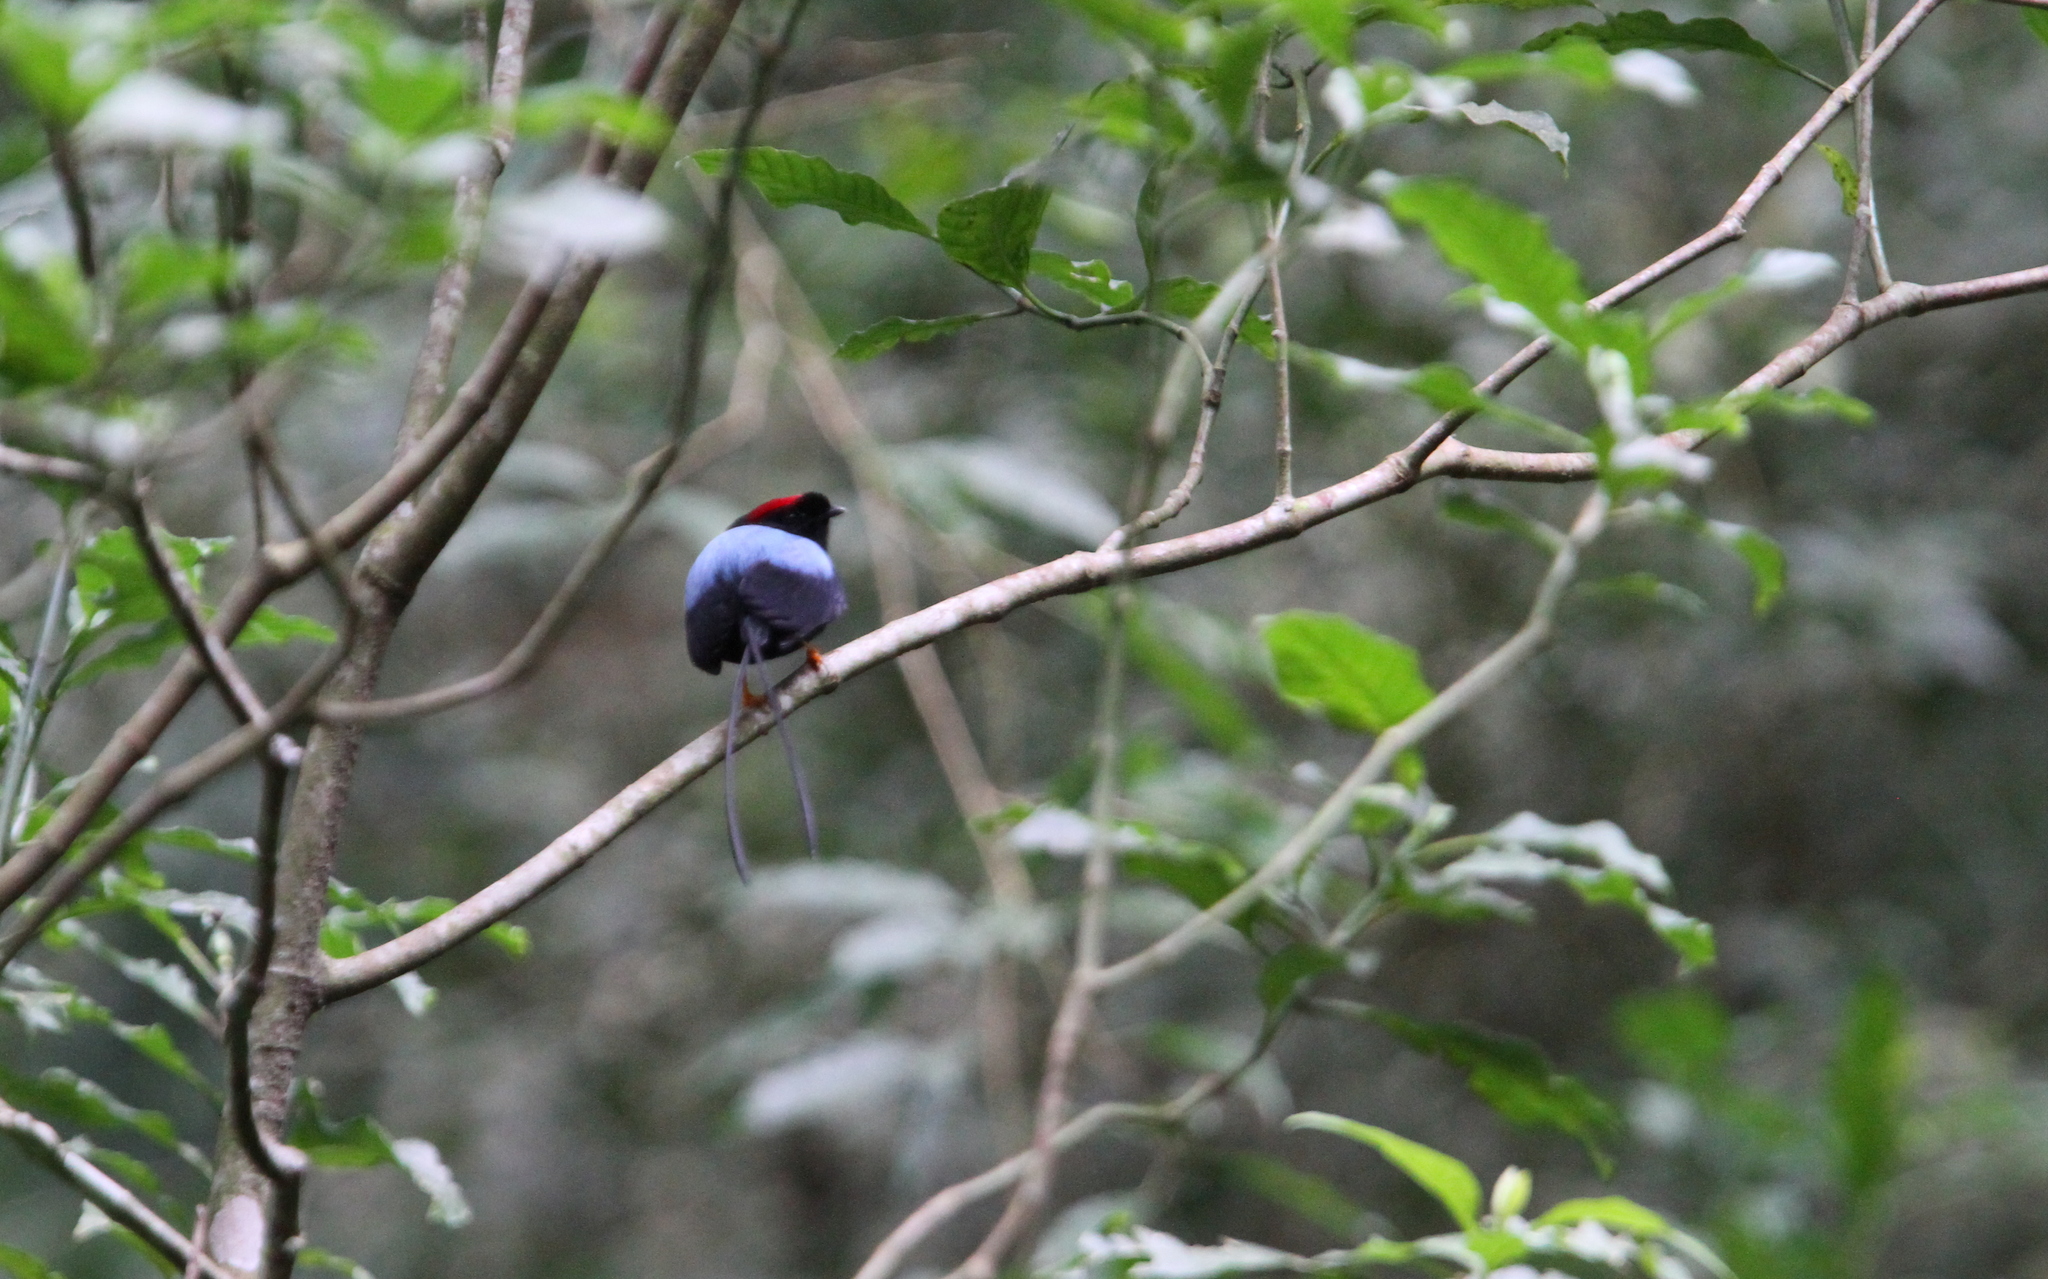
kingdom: Animalia
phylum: Chordata
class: Aves
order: Passeriformes
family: Pipridae
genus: Chiroxiphia
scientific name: Chiroxiphia linearis
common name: Long-tailed manakin
